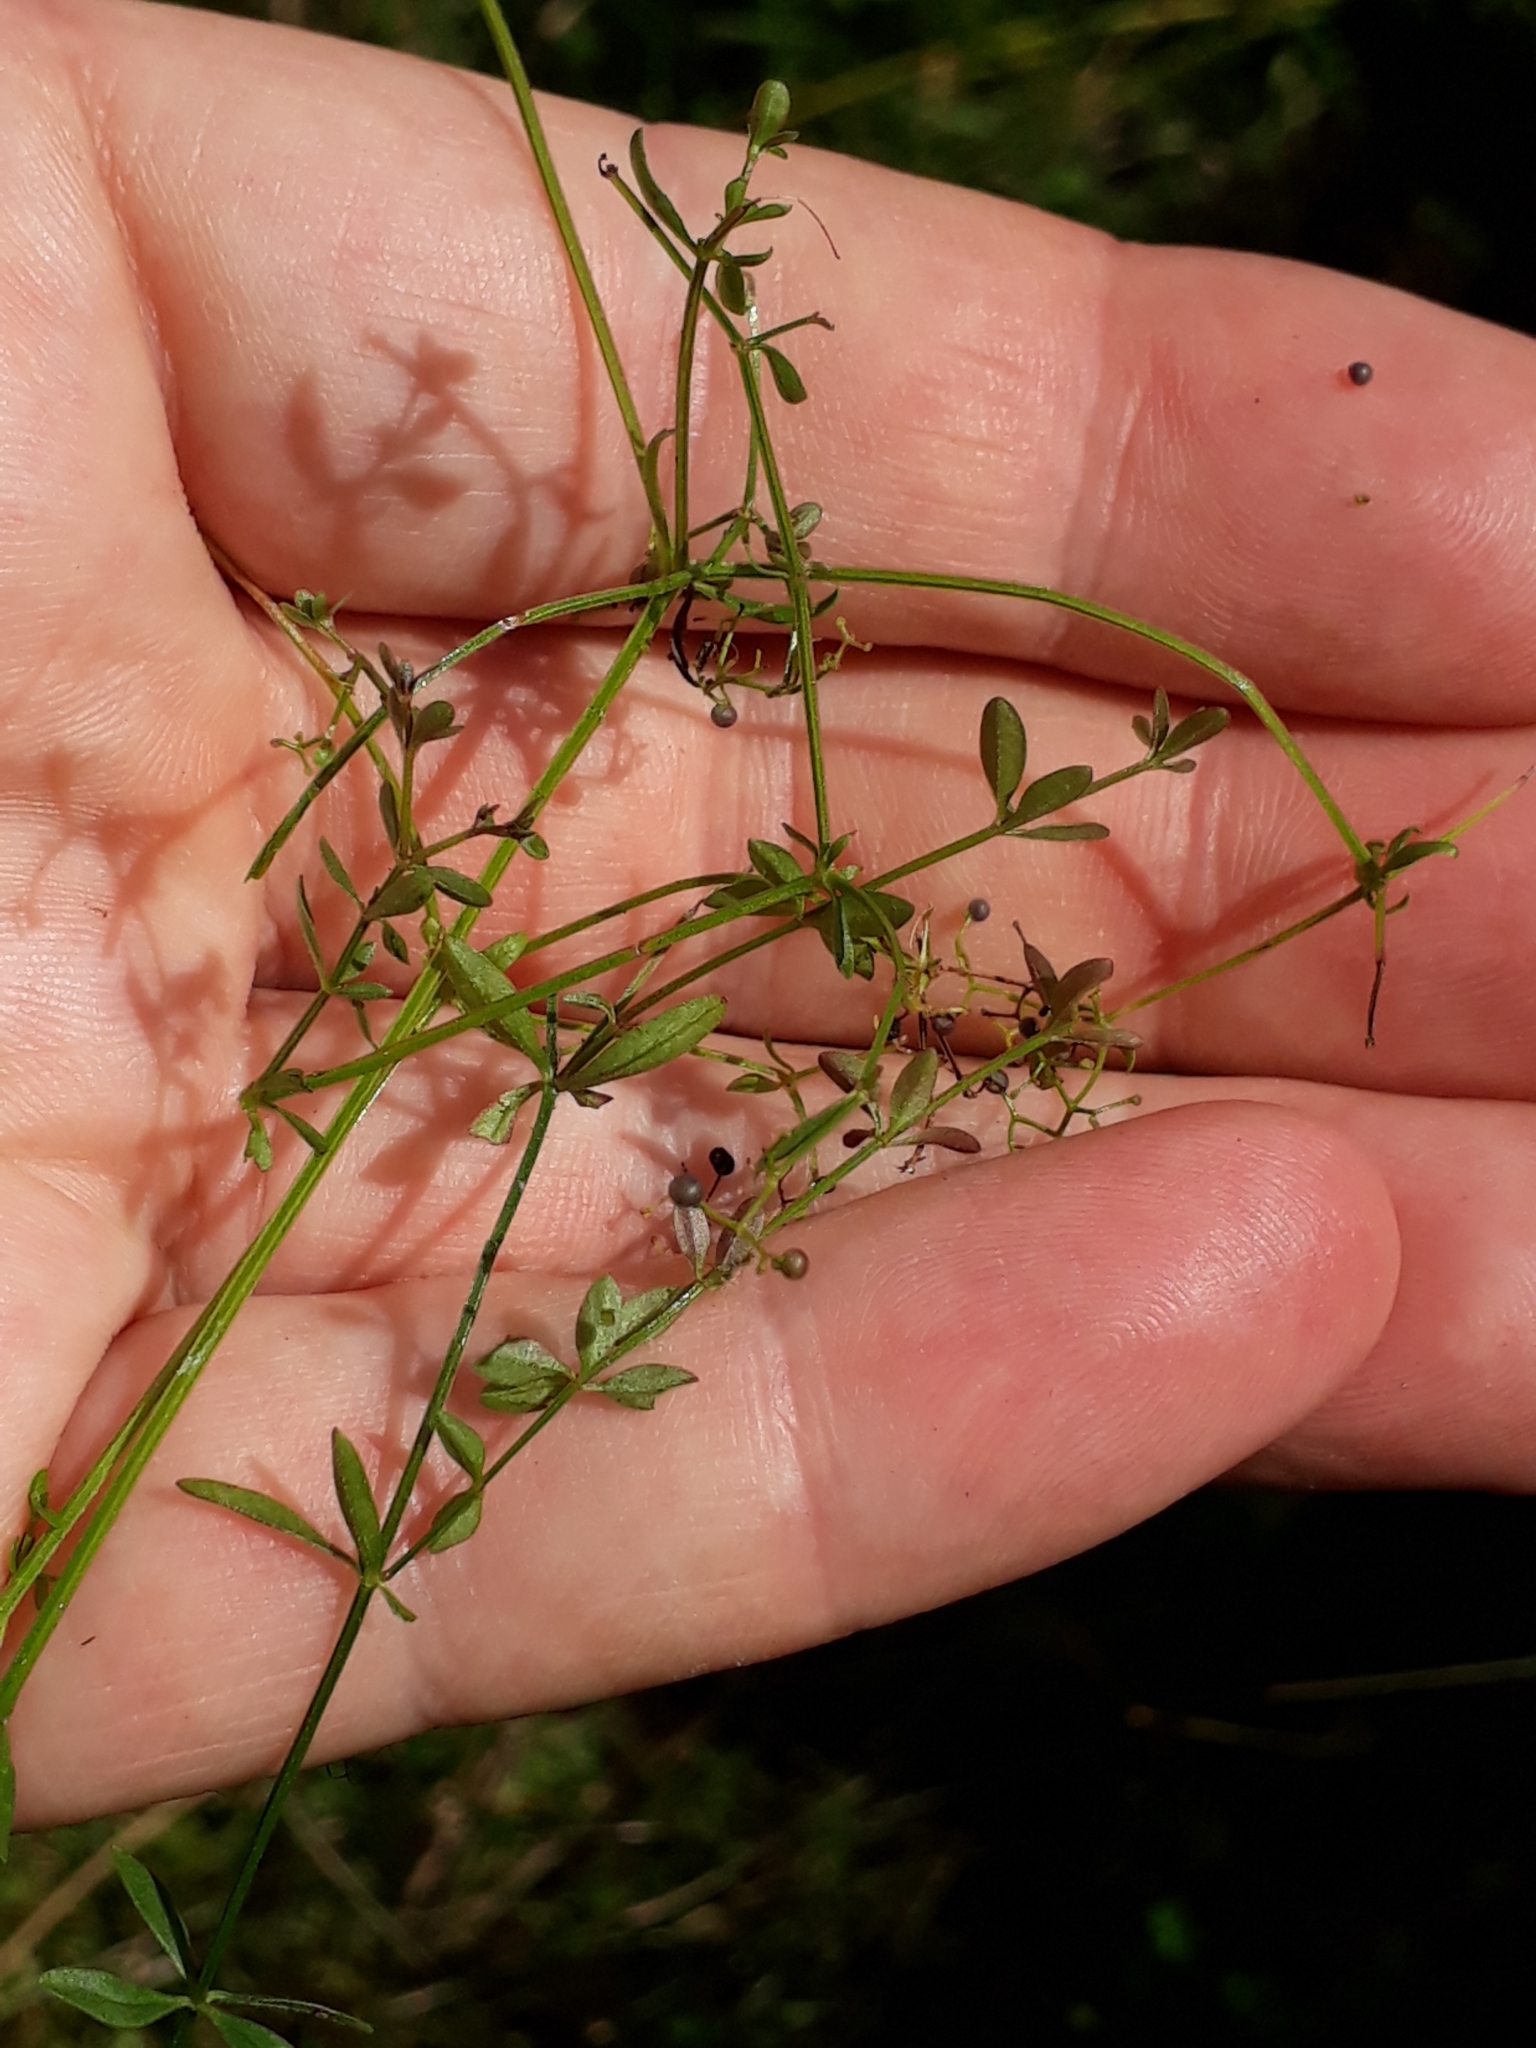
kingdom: Plantae
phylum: Tracheophyta
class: Magnoliopsida
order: Gentianales
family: Rubiaceae
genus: Galium
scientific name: Galium palustre
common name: Common marsh-bedstraw
